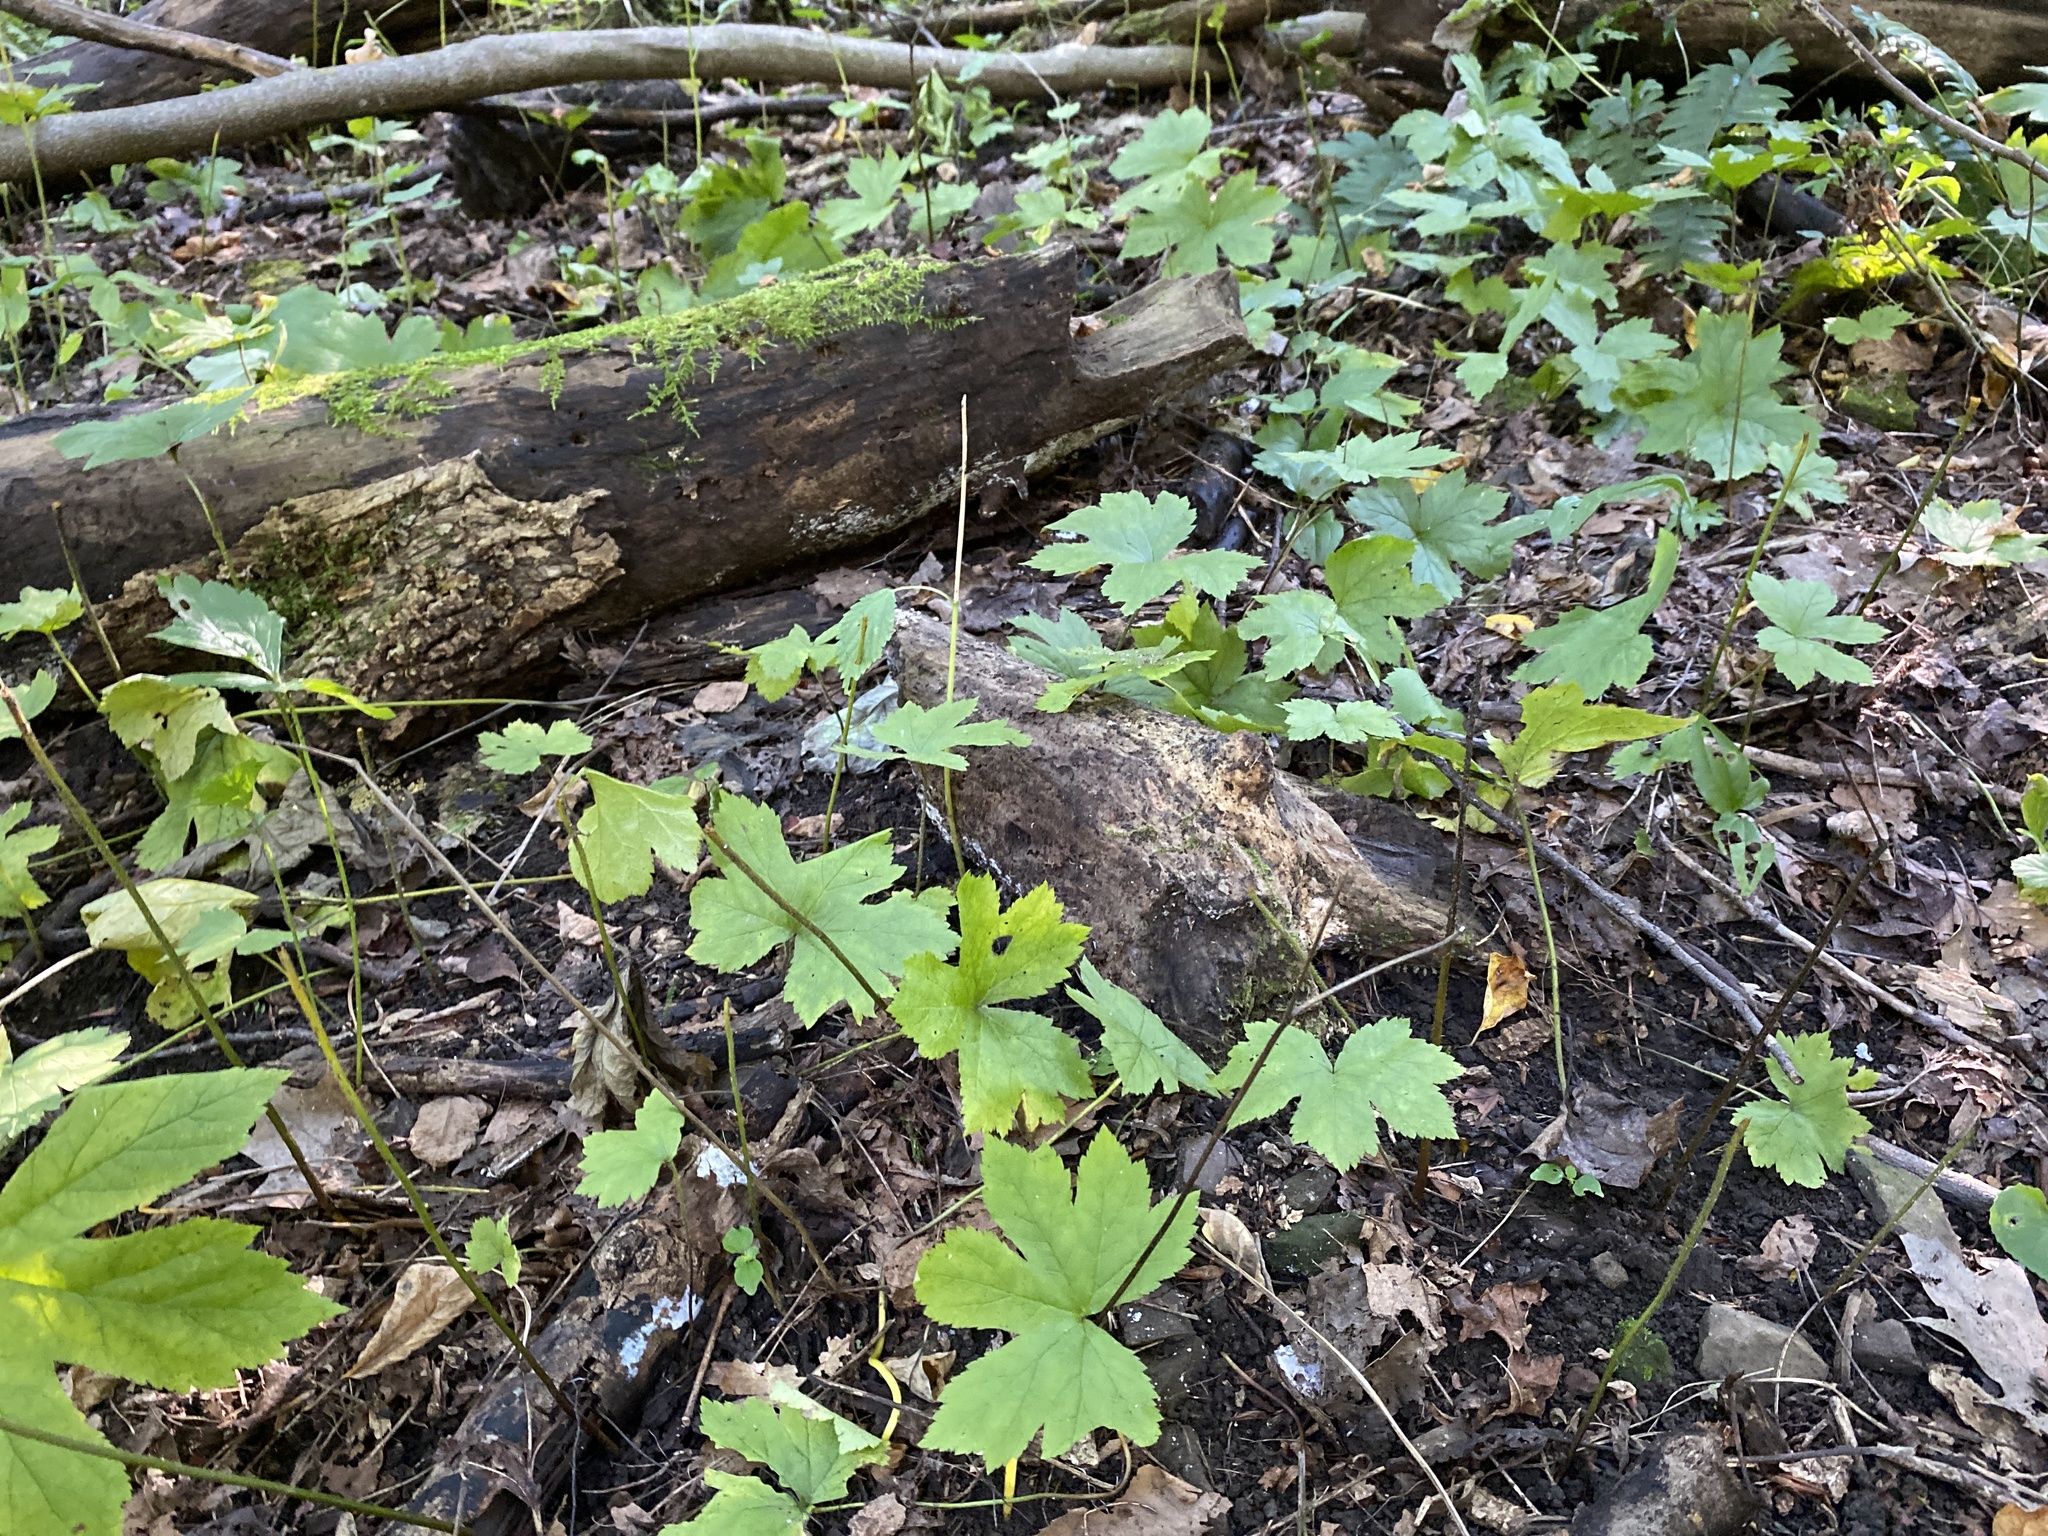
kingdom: Plantae
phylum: Tracheophyta
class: Magnoliopsida
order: Ranunculales
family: Ranunculaceae
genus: Hydrastis
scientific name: Hydrastis canadensis
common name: Goldenseal
